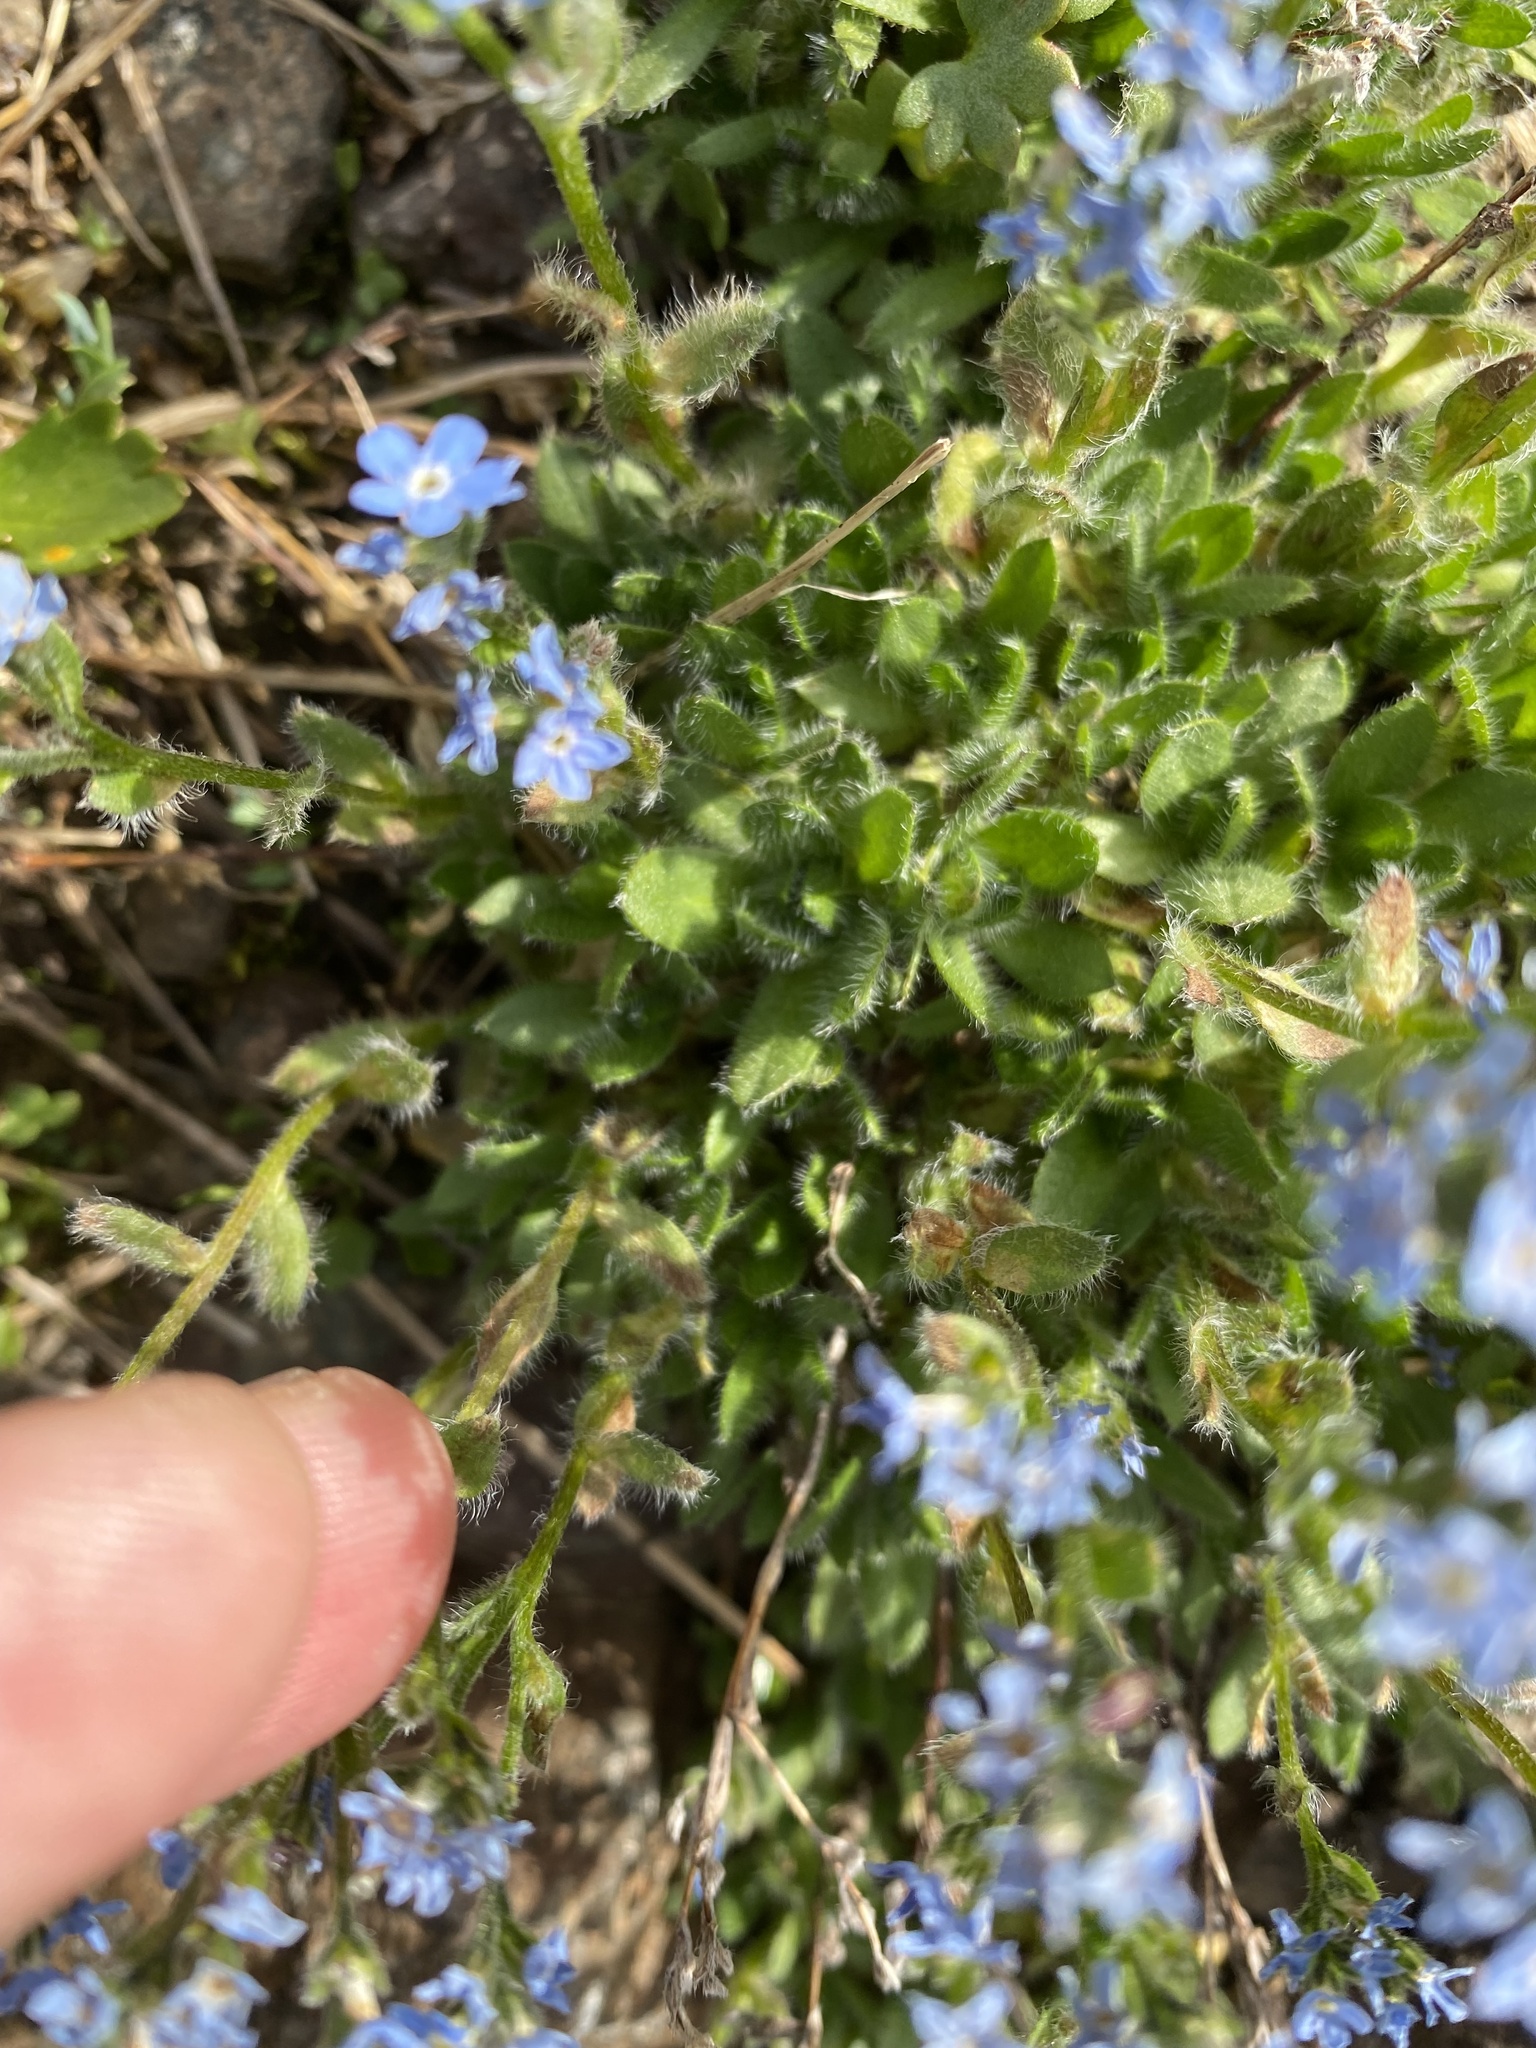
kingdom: Plantae
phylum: Tracheophyta
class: Magnoliopsida
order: Boraginales
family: Boraginaceae
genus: Eritrichium
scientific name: Eritrichium villosum
